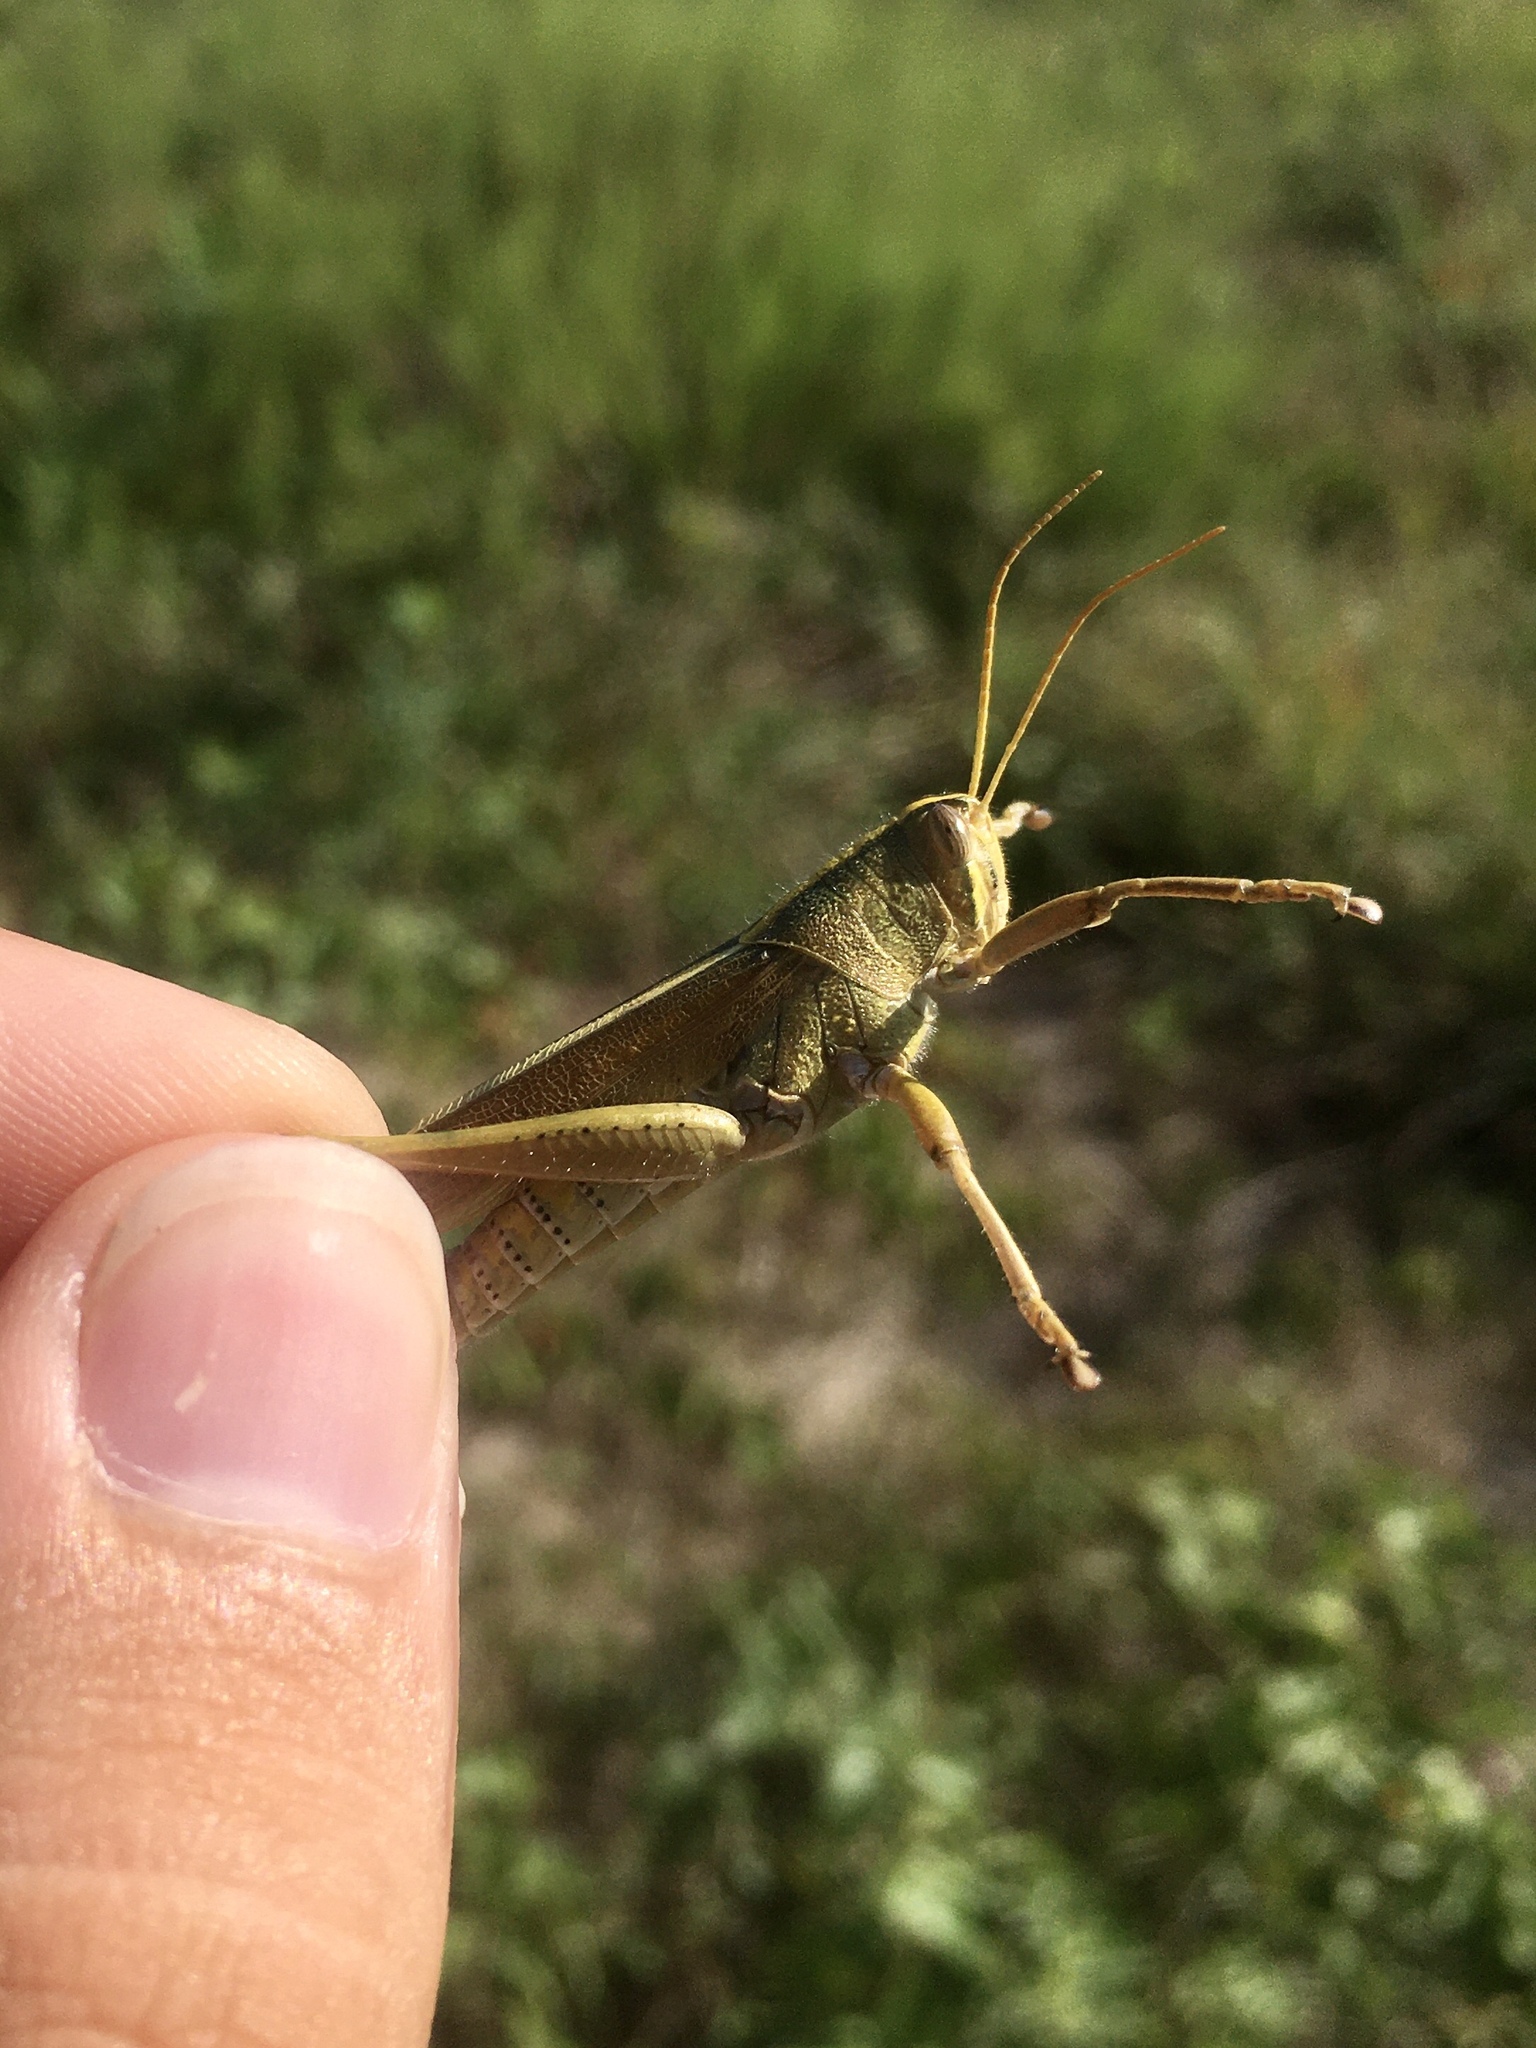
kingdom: Animalia
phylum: Arthropoda
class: Insecta
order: Orthoptera
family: Acrididae
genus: Schistocerca
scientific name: Schistocerca lineata
